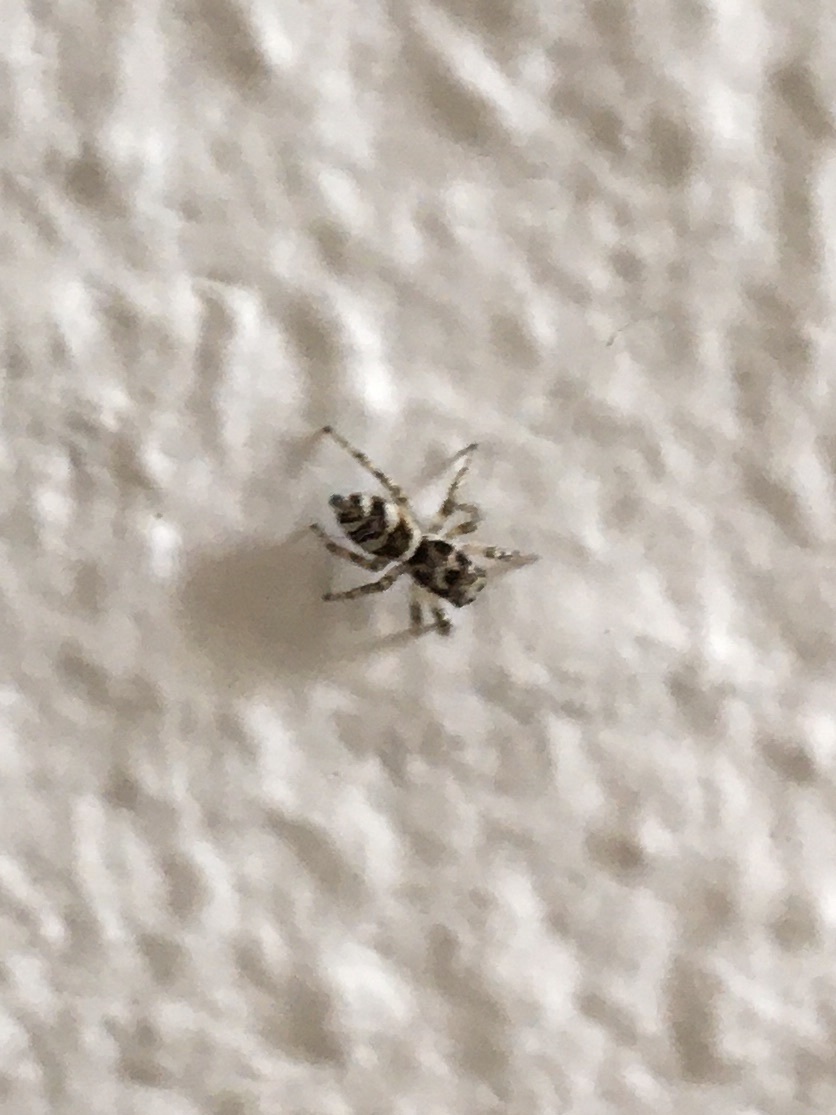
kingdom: Animalia
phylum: Arthropoda
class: Arachnida
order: Araneae
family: Salticidae
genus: Salticus
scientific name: Salticus scenicus
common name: Zebra jumper
